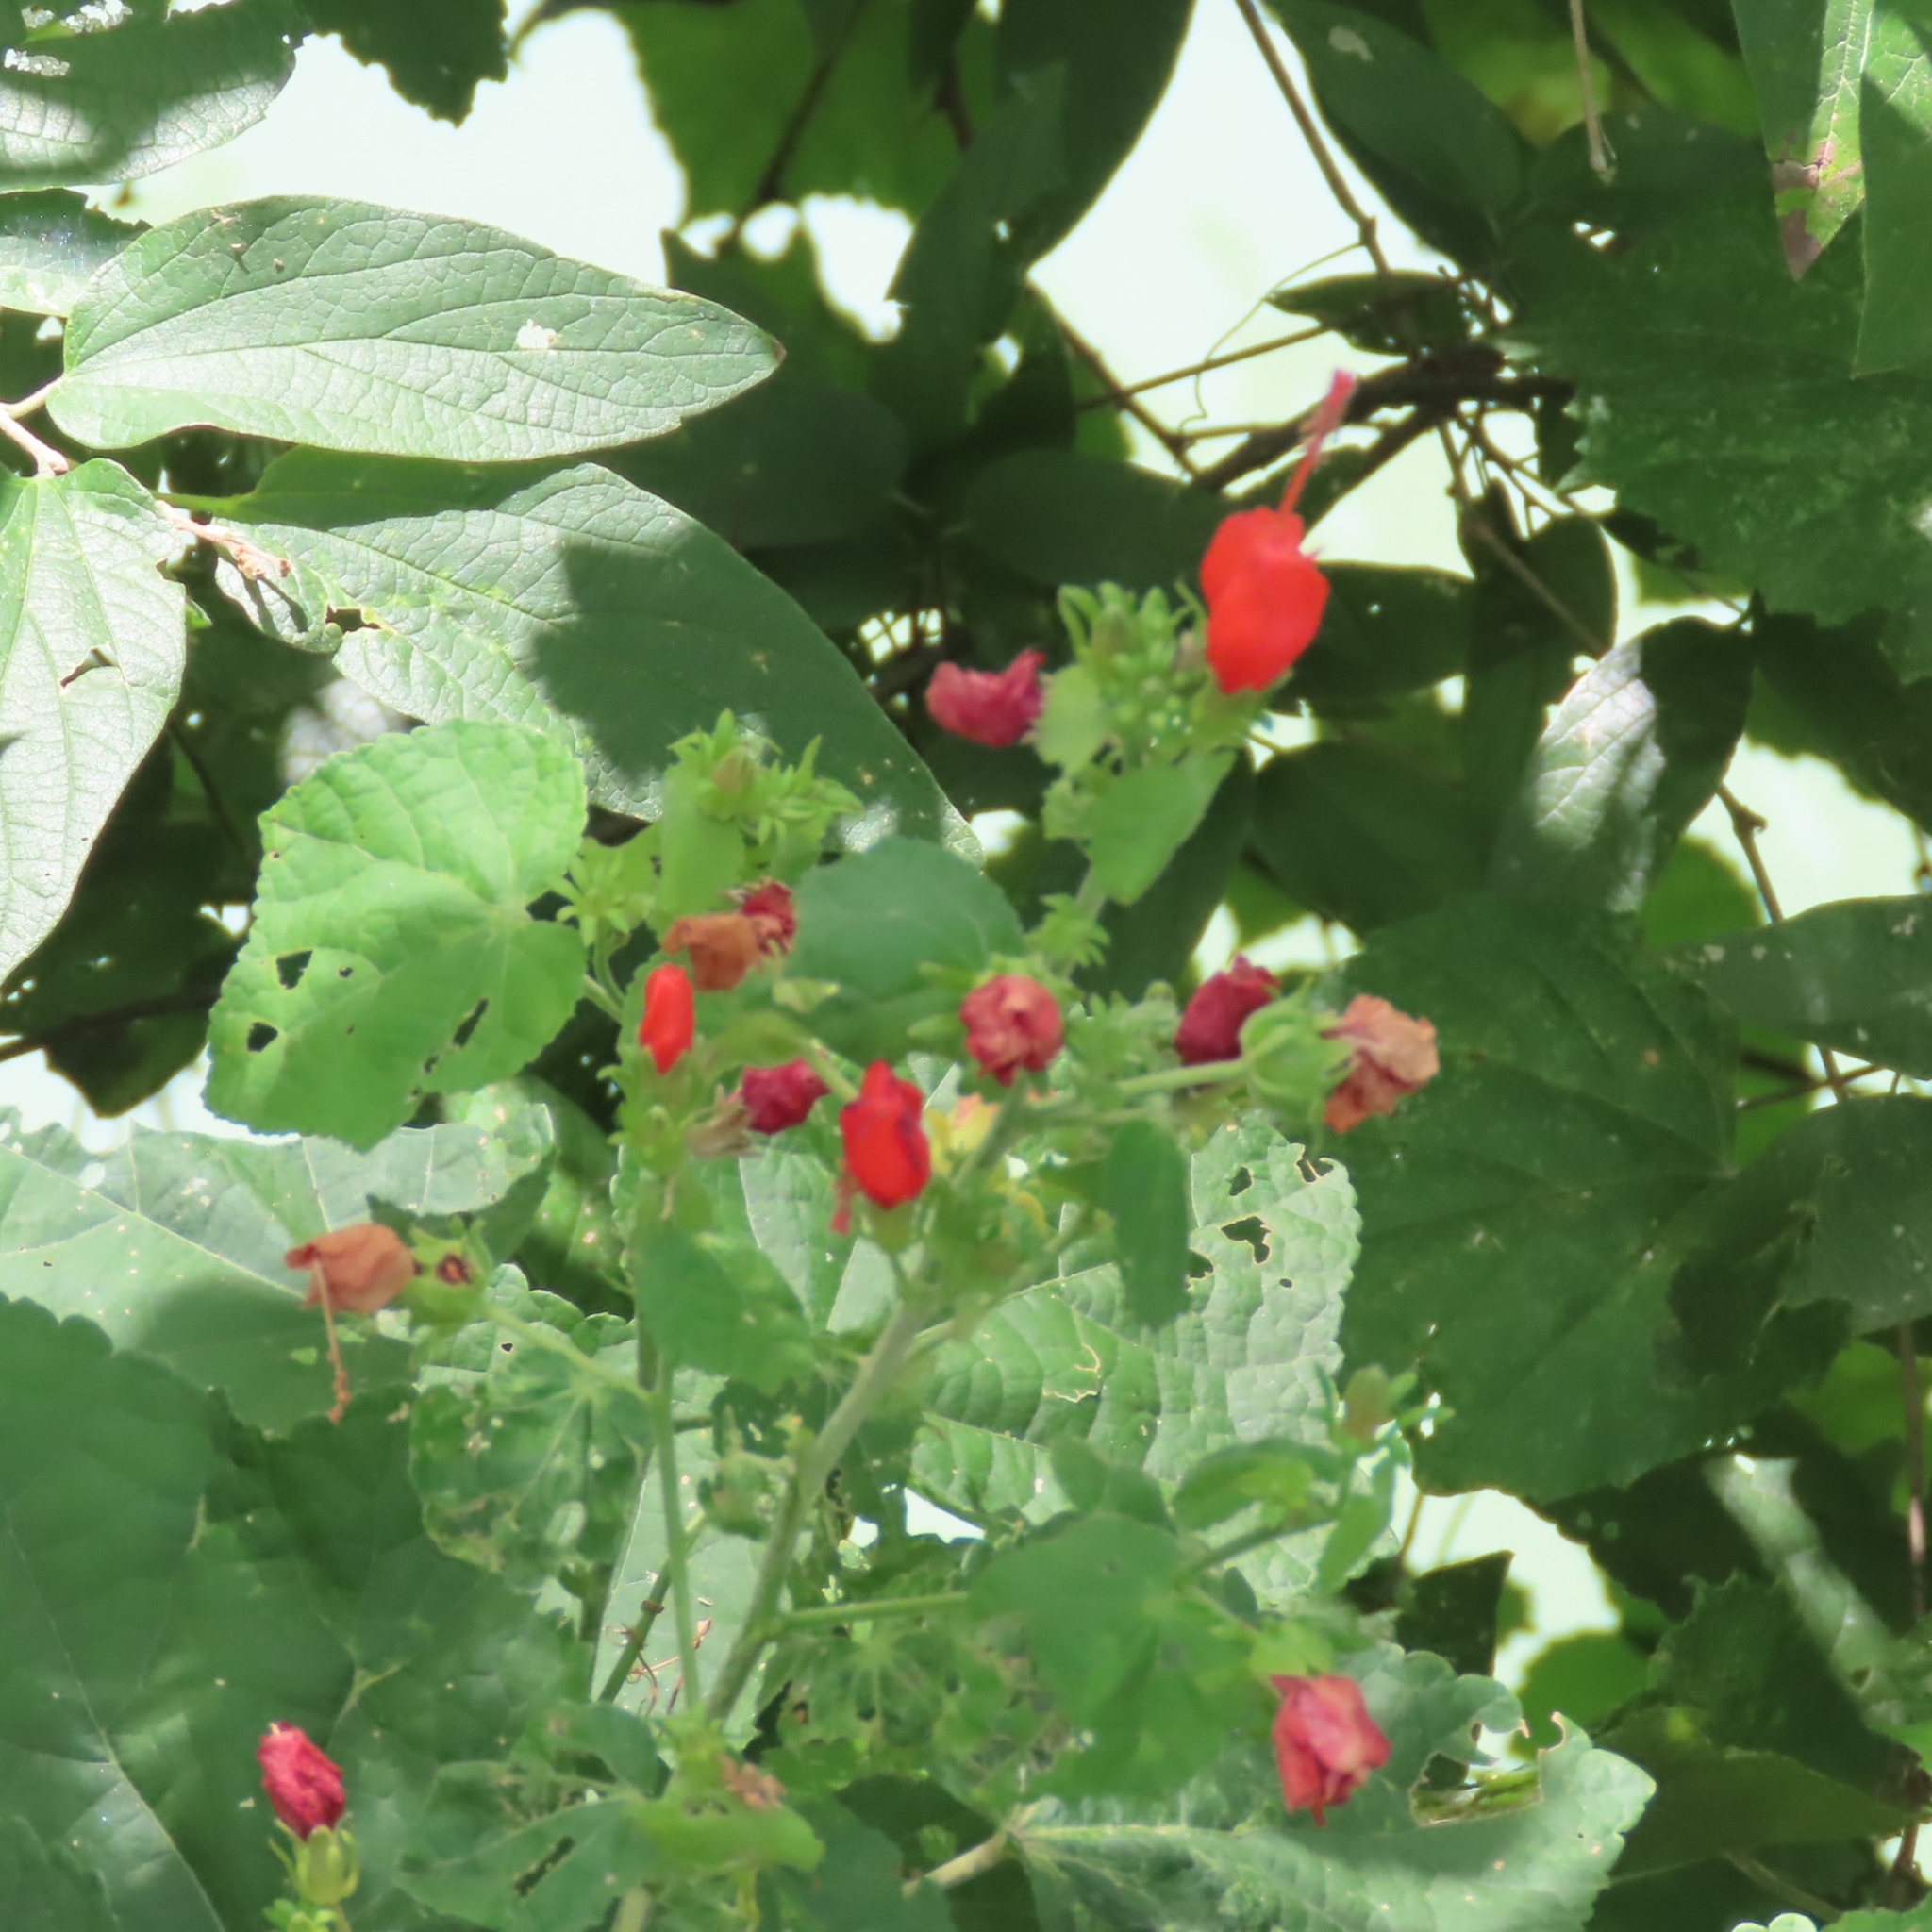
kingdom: Plantae
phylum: Tracheophyta
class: Magnoliopsida
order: Malvales
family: Malvaceae
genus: Malvaviscus
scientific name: Malvaviscus arboreus
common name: Wax mallow
